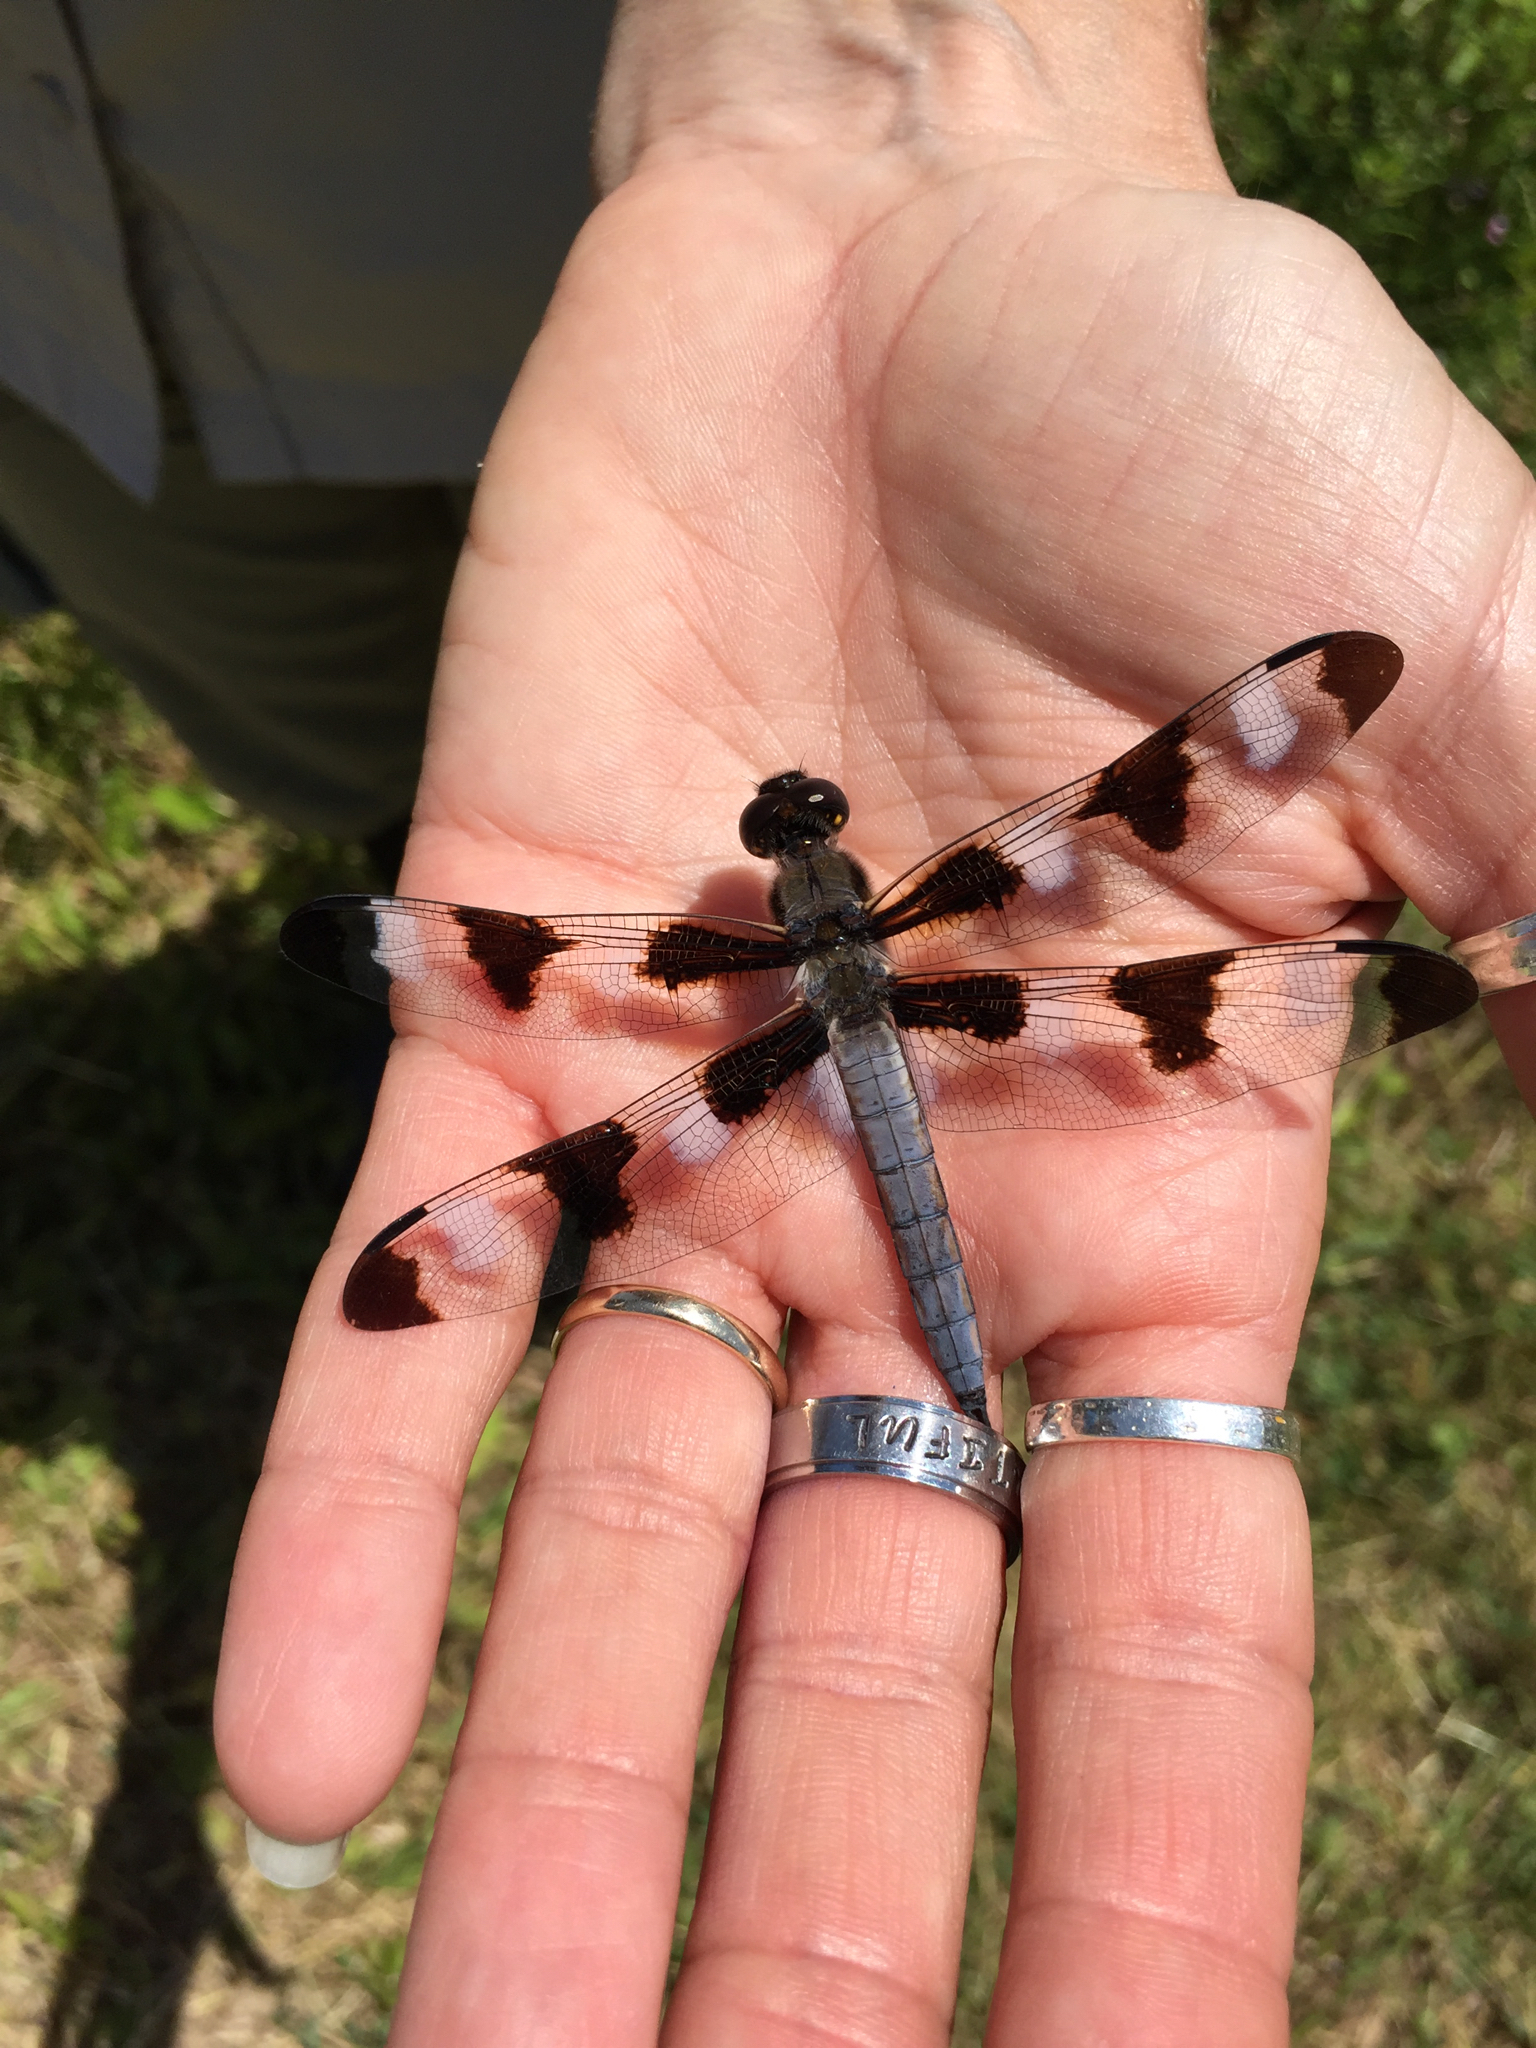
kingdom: Animalia
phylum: Arthropoda
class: Insecta
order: Odonata
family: Libellulidae
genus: Libellula
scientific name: Libellula pulchella
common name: Twelve-spotted skimmer
